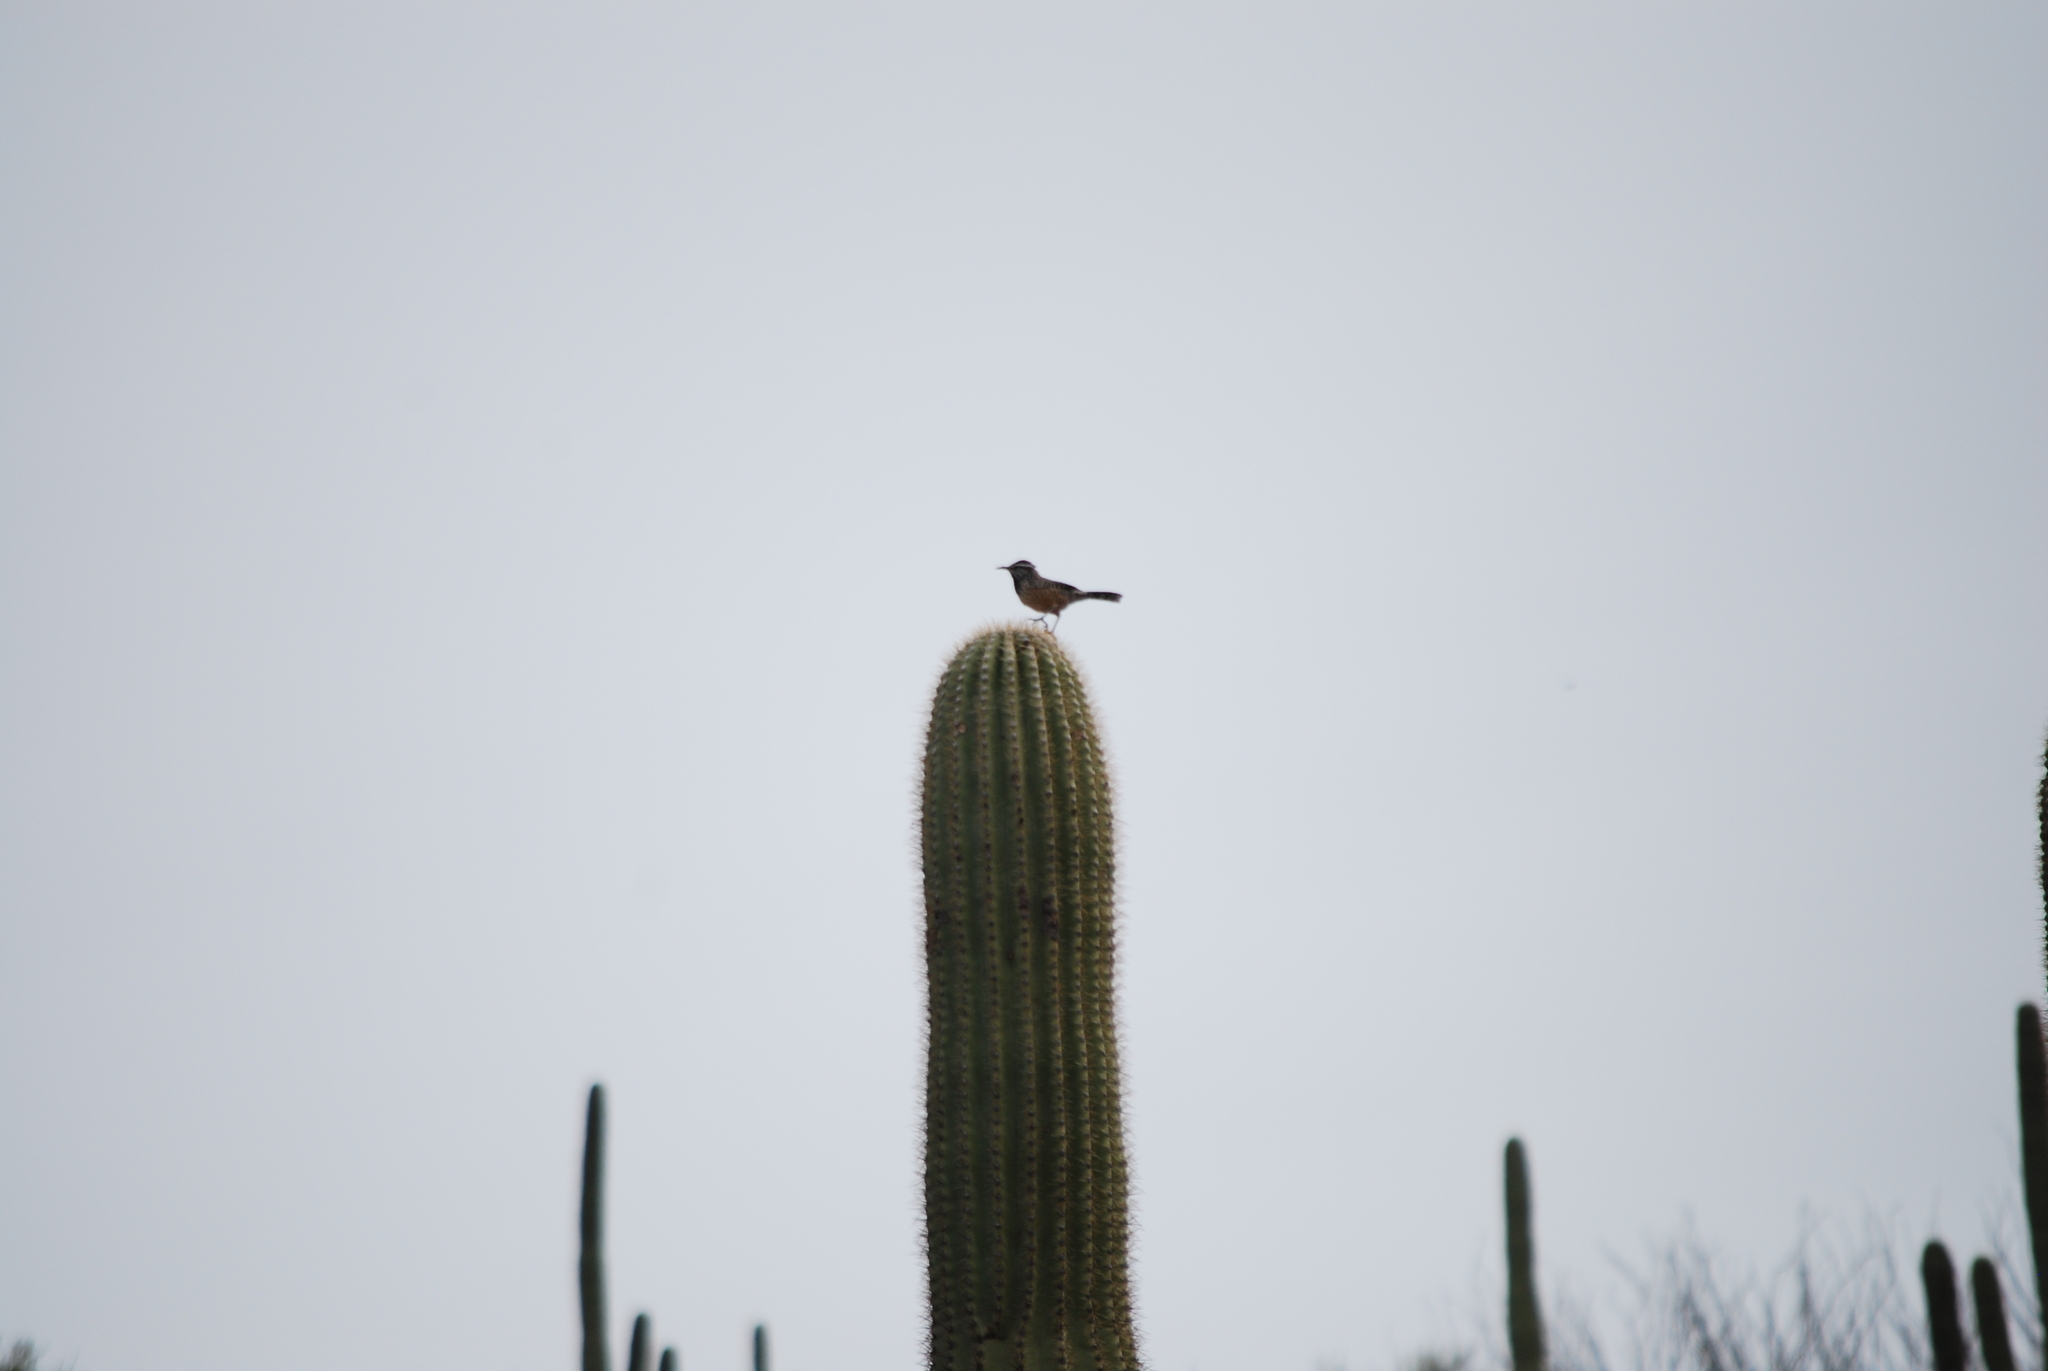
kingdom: Animalia
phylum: Chordata
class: Aves
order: Passeriformes
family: Troglodytidae
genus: Campylorhynchus
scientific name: Campylorhynchus brunneicapillus
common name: Cactus wren
